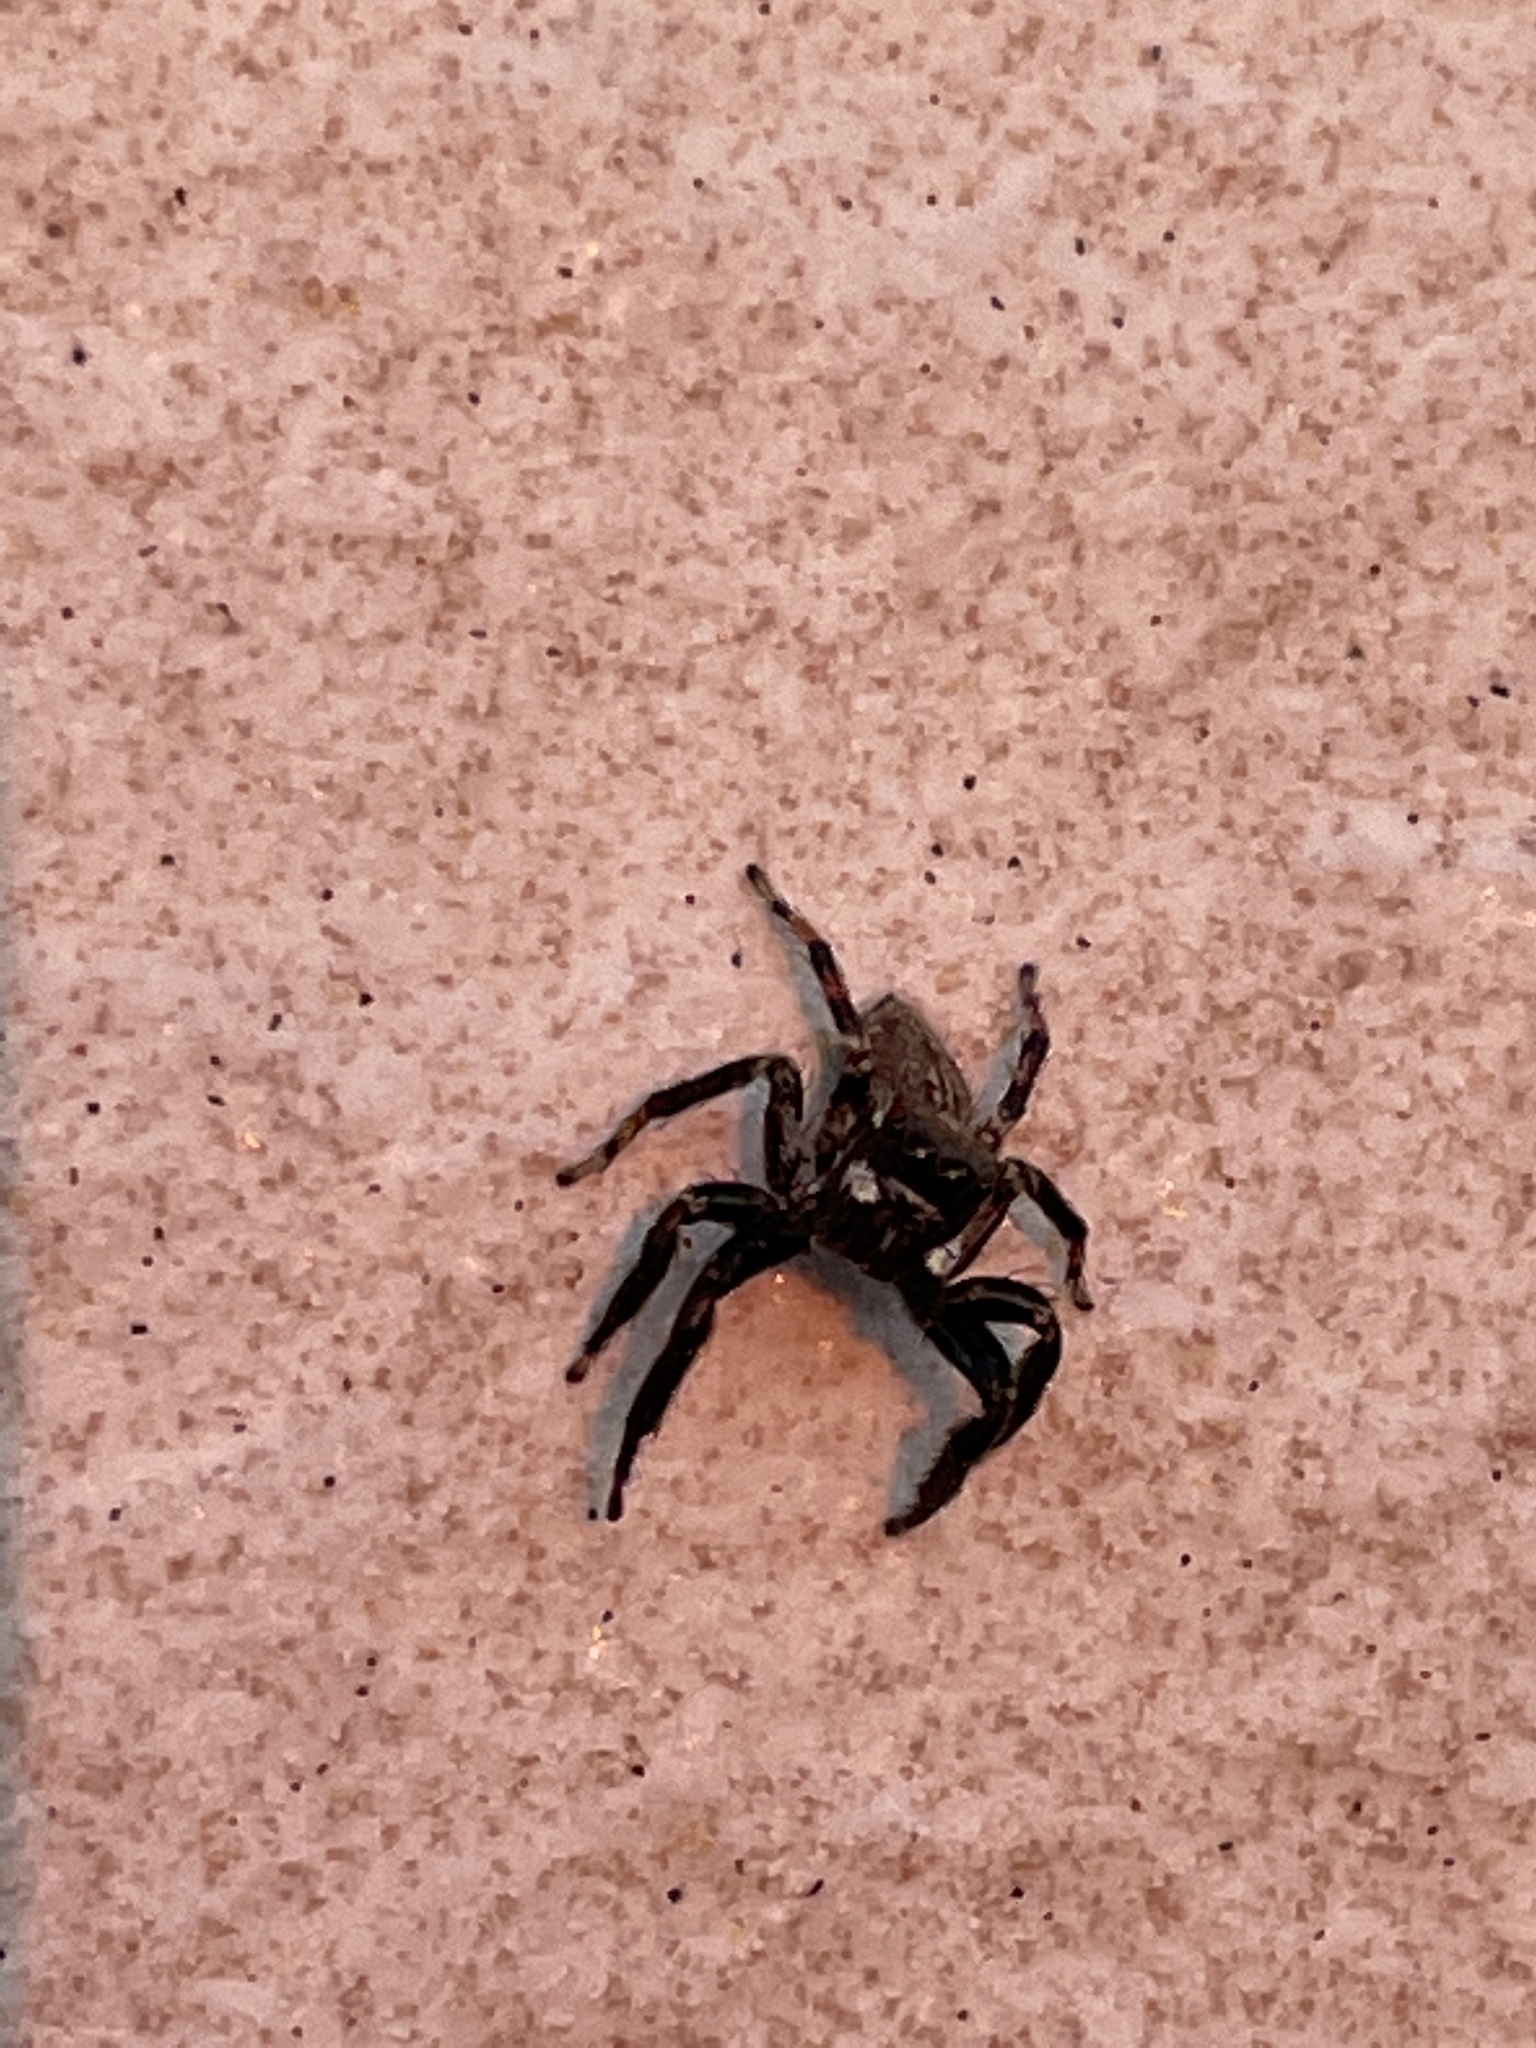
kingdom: Animalia
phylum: Arthropoda
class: Arachnida
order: Araneae
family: Salticidae
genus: Evarcha
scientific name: Evarcha jucunda
